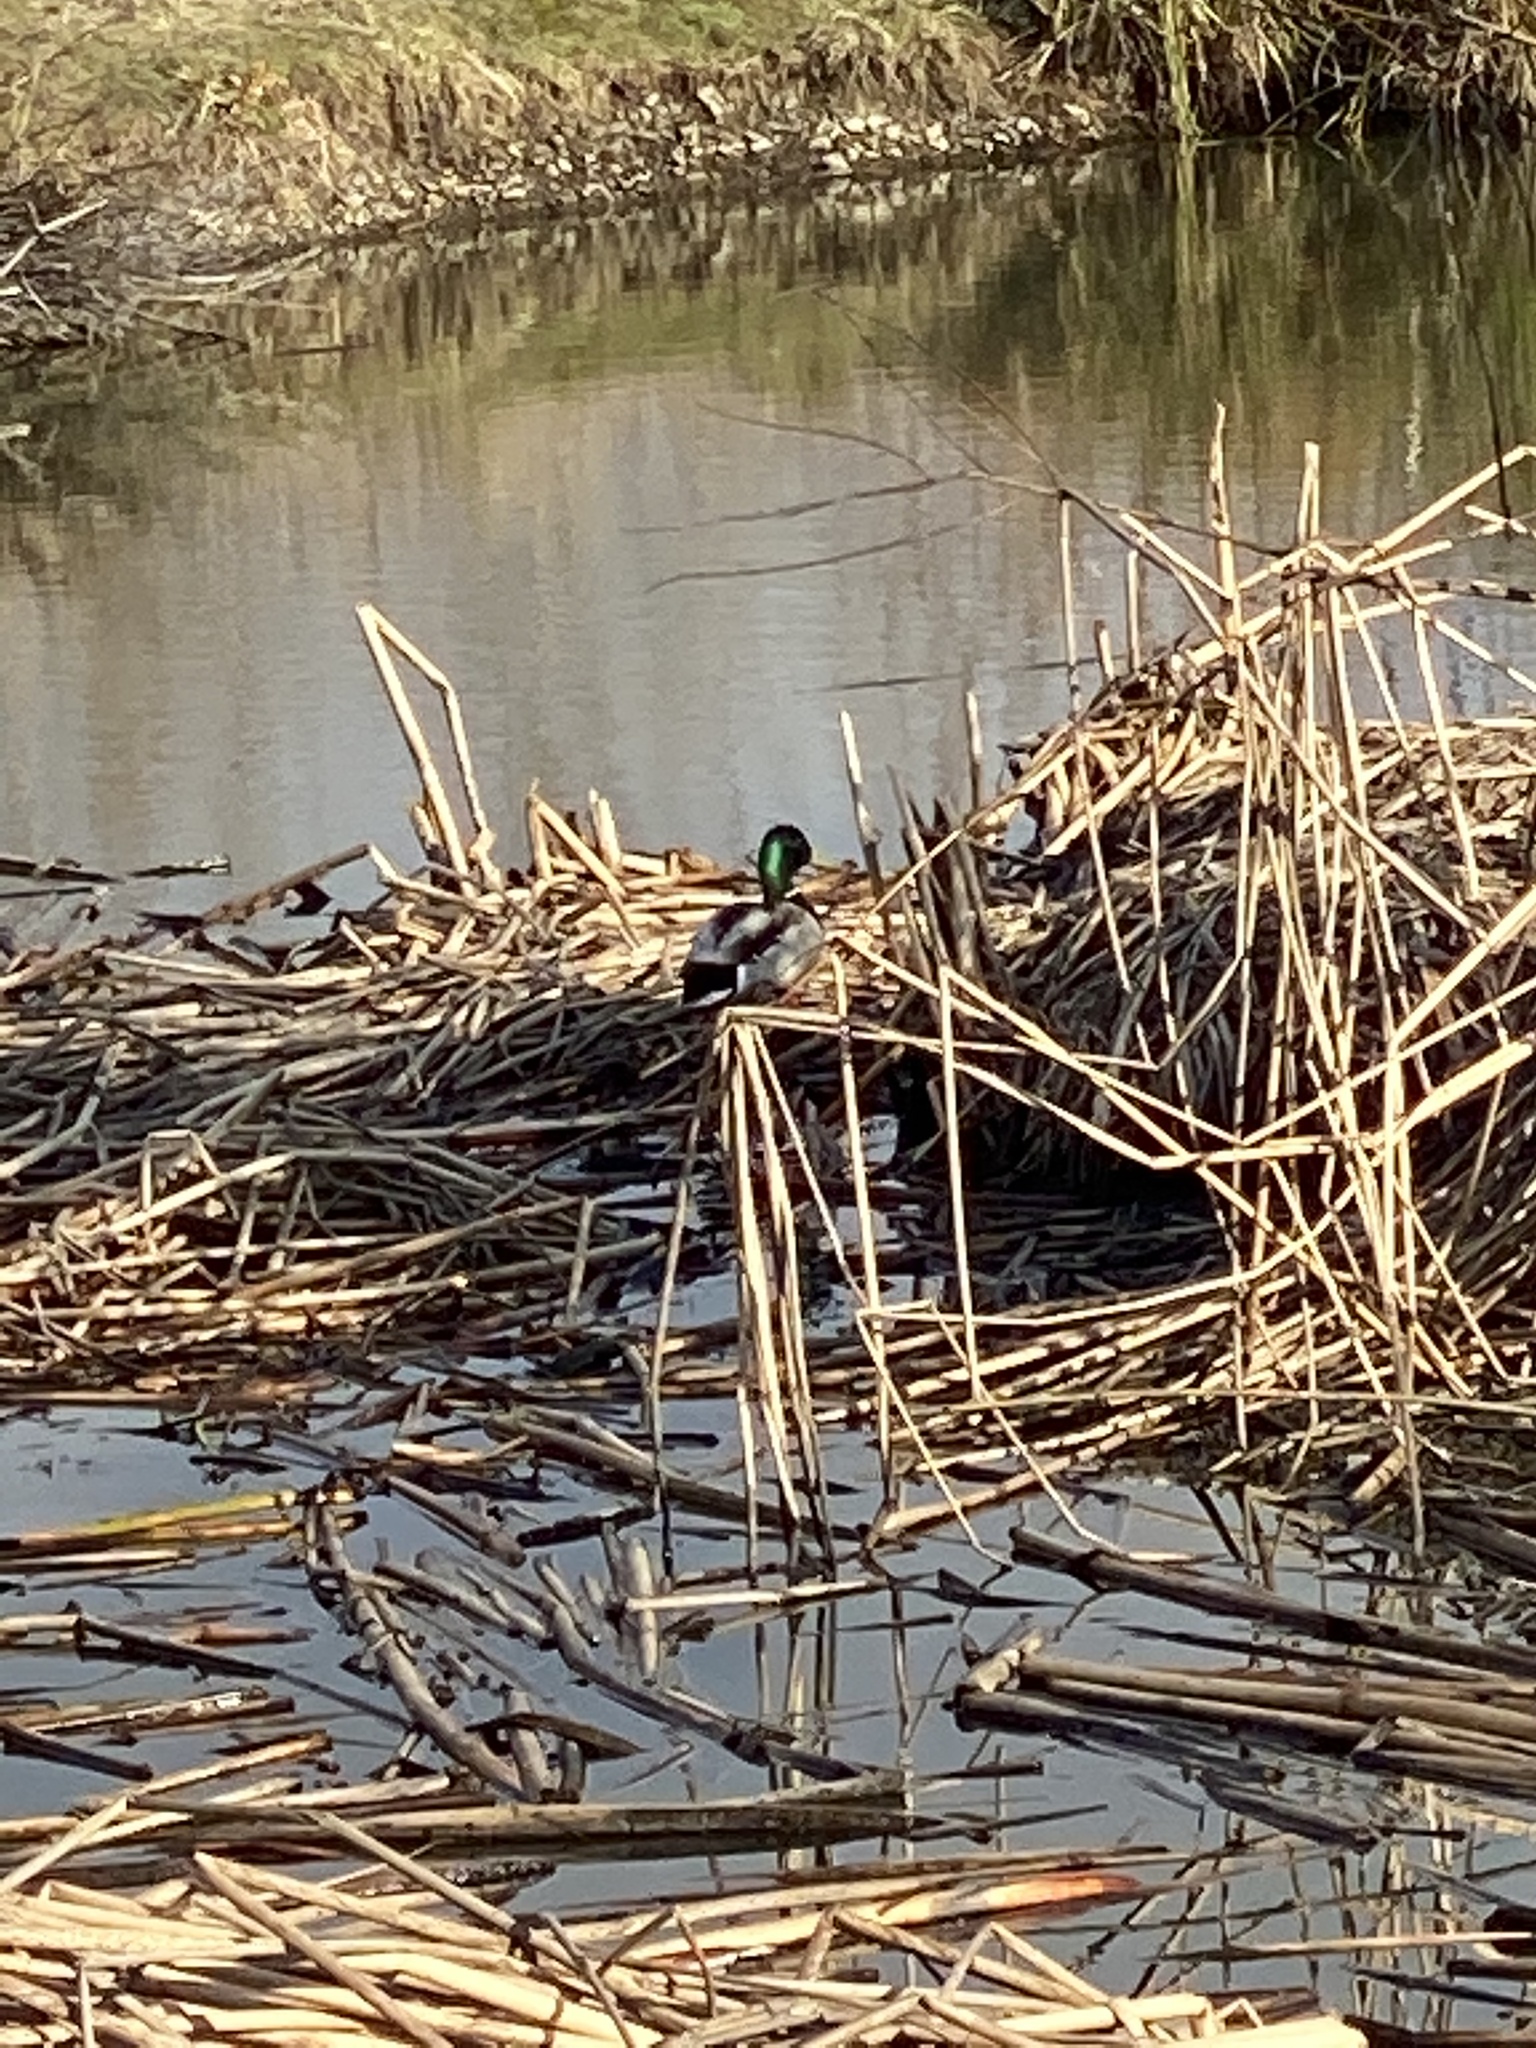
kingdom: Animalia
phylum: Chordata
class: Aves
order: Anseriformes
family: Anatidae
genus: Anas
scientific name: Anas platyrhynchos
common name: Mallard
